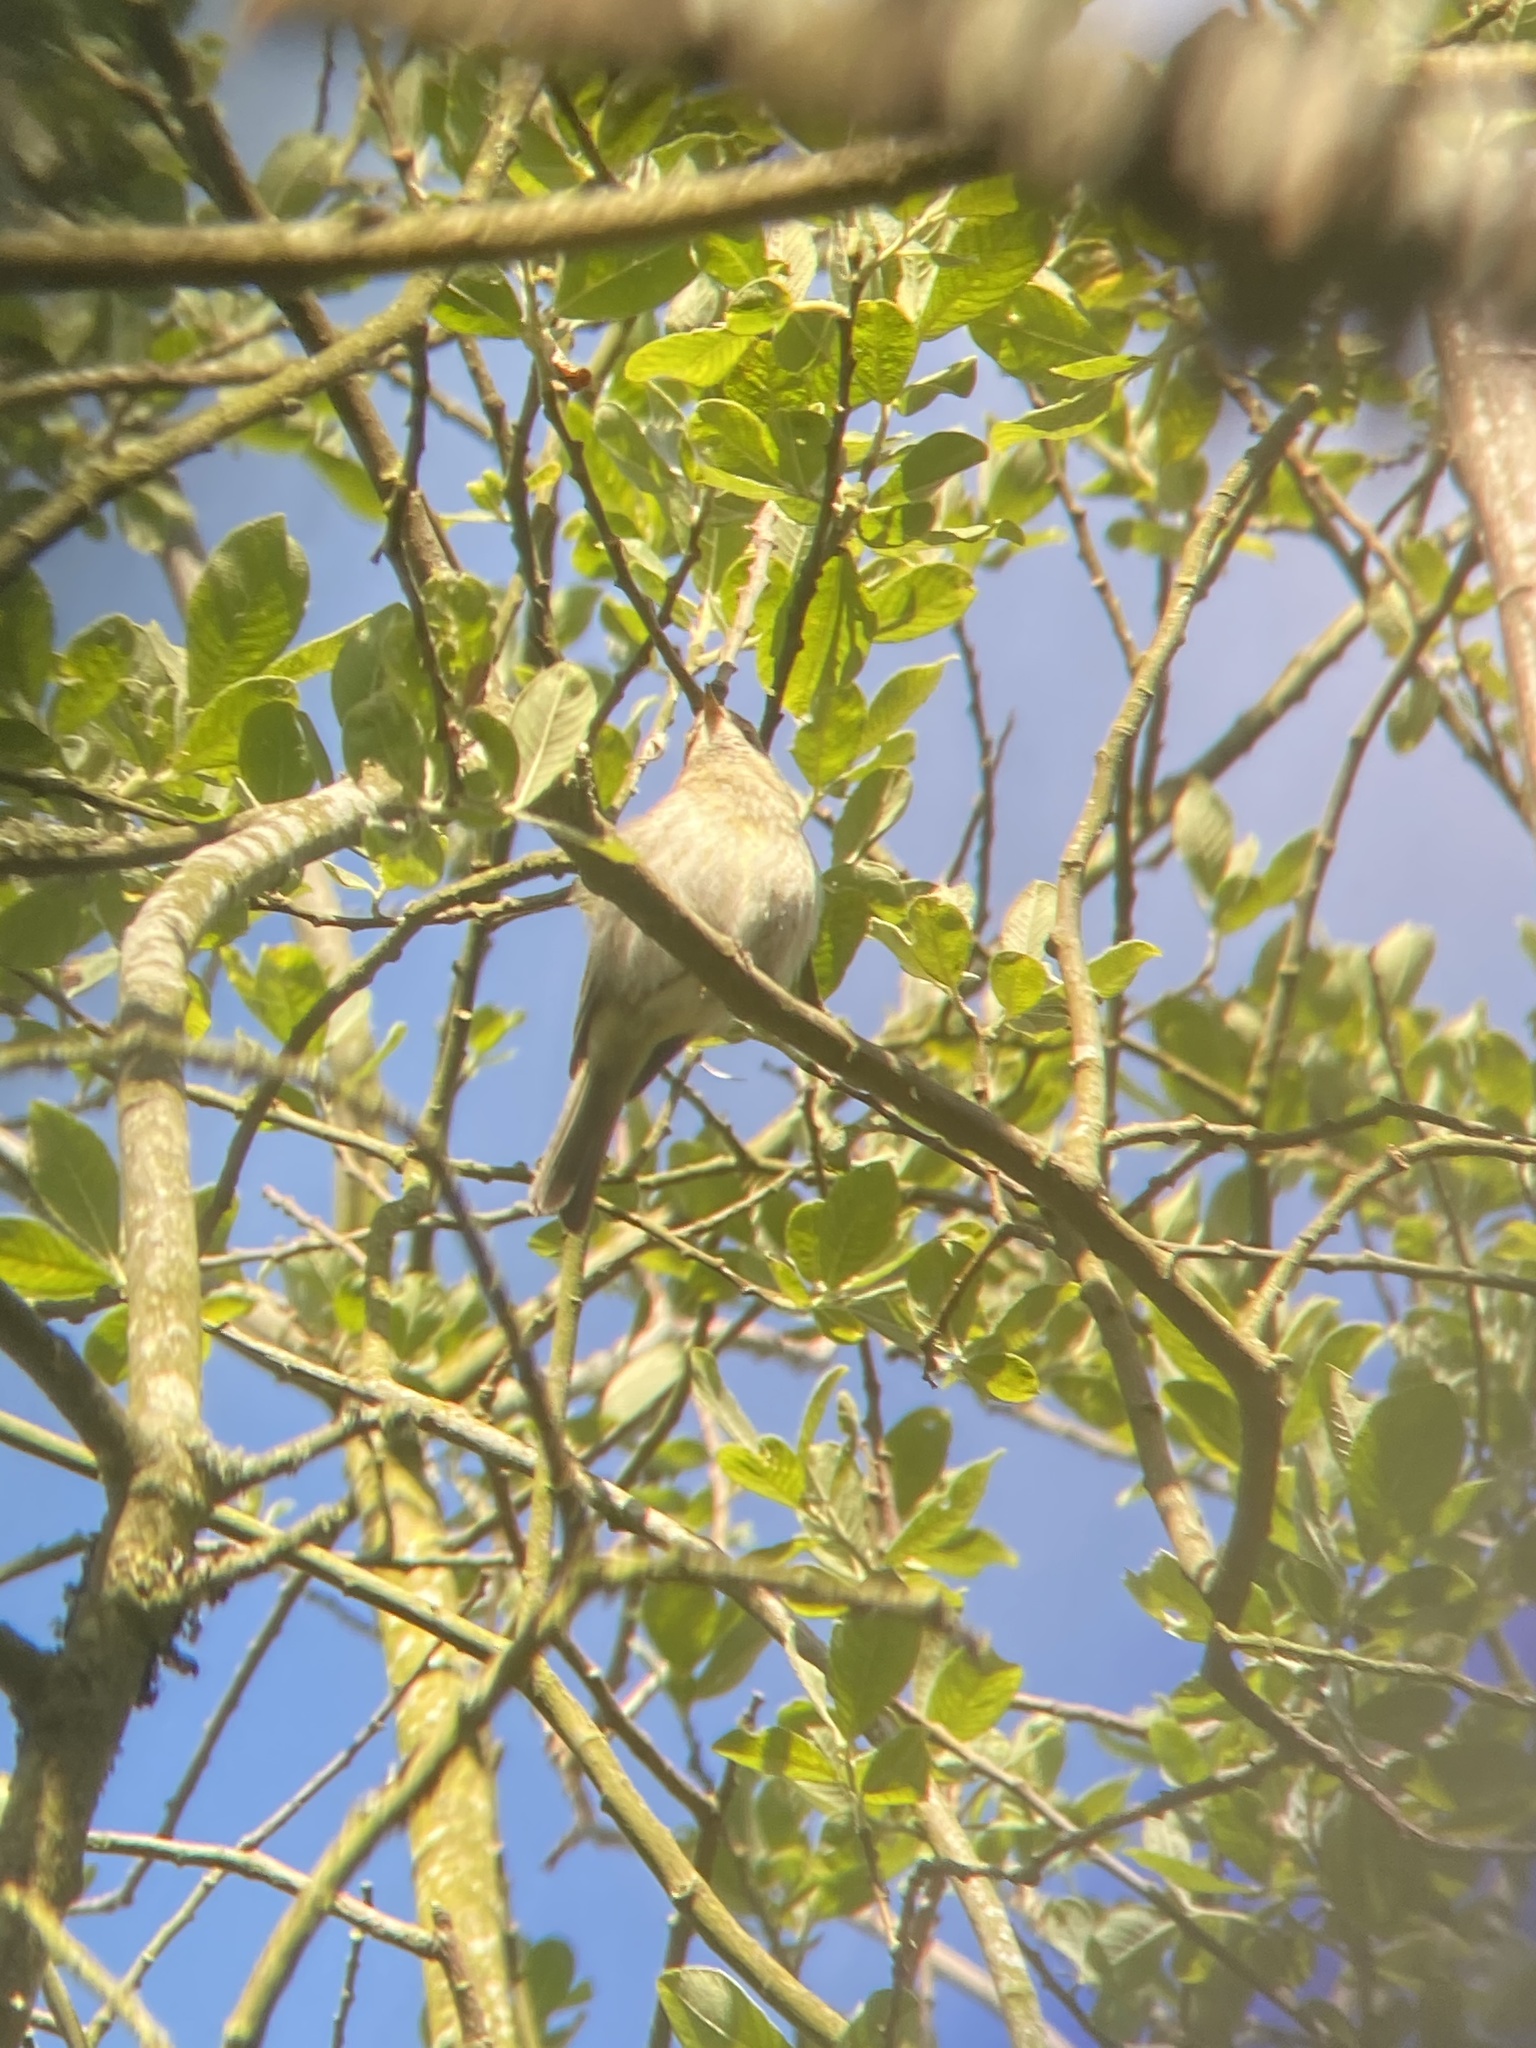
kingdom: Animalia
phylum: Chordata
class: Aves
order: Passeriformes
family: Phylloscopidae
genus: Phylloscopus
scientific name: Phylloscopus collybita
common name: Common chiffchaff
